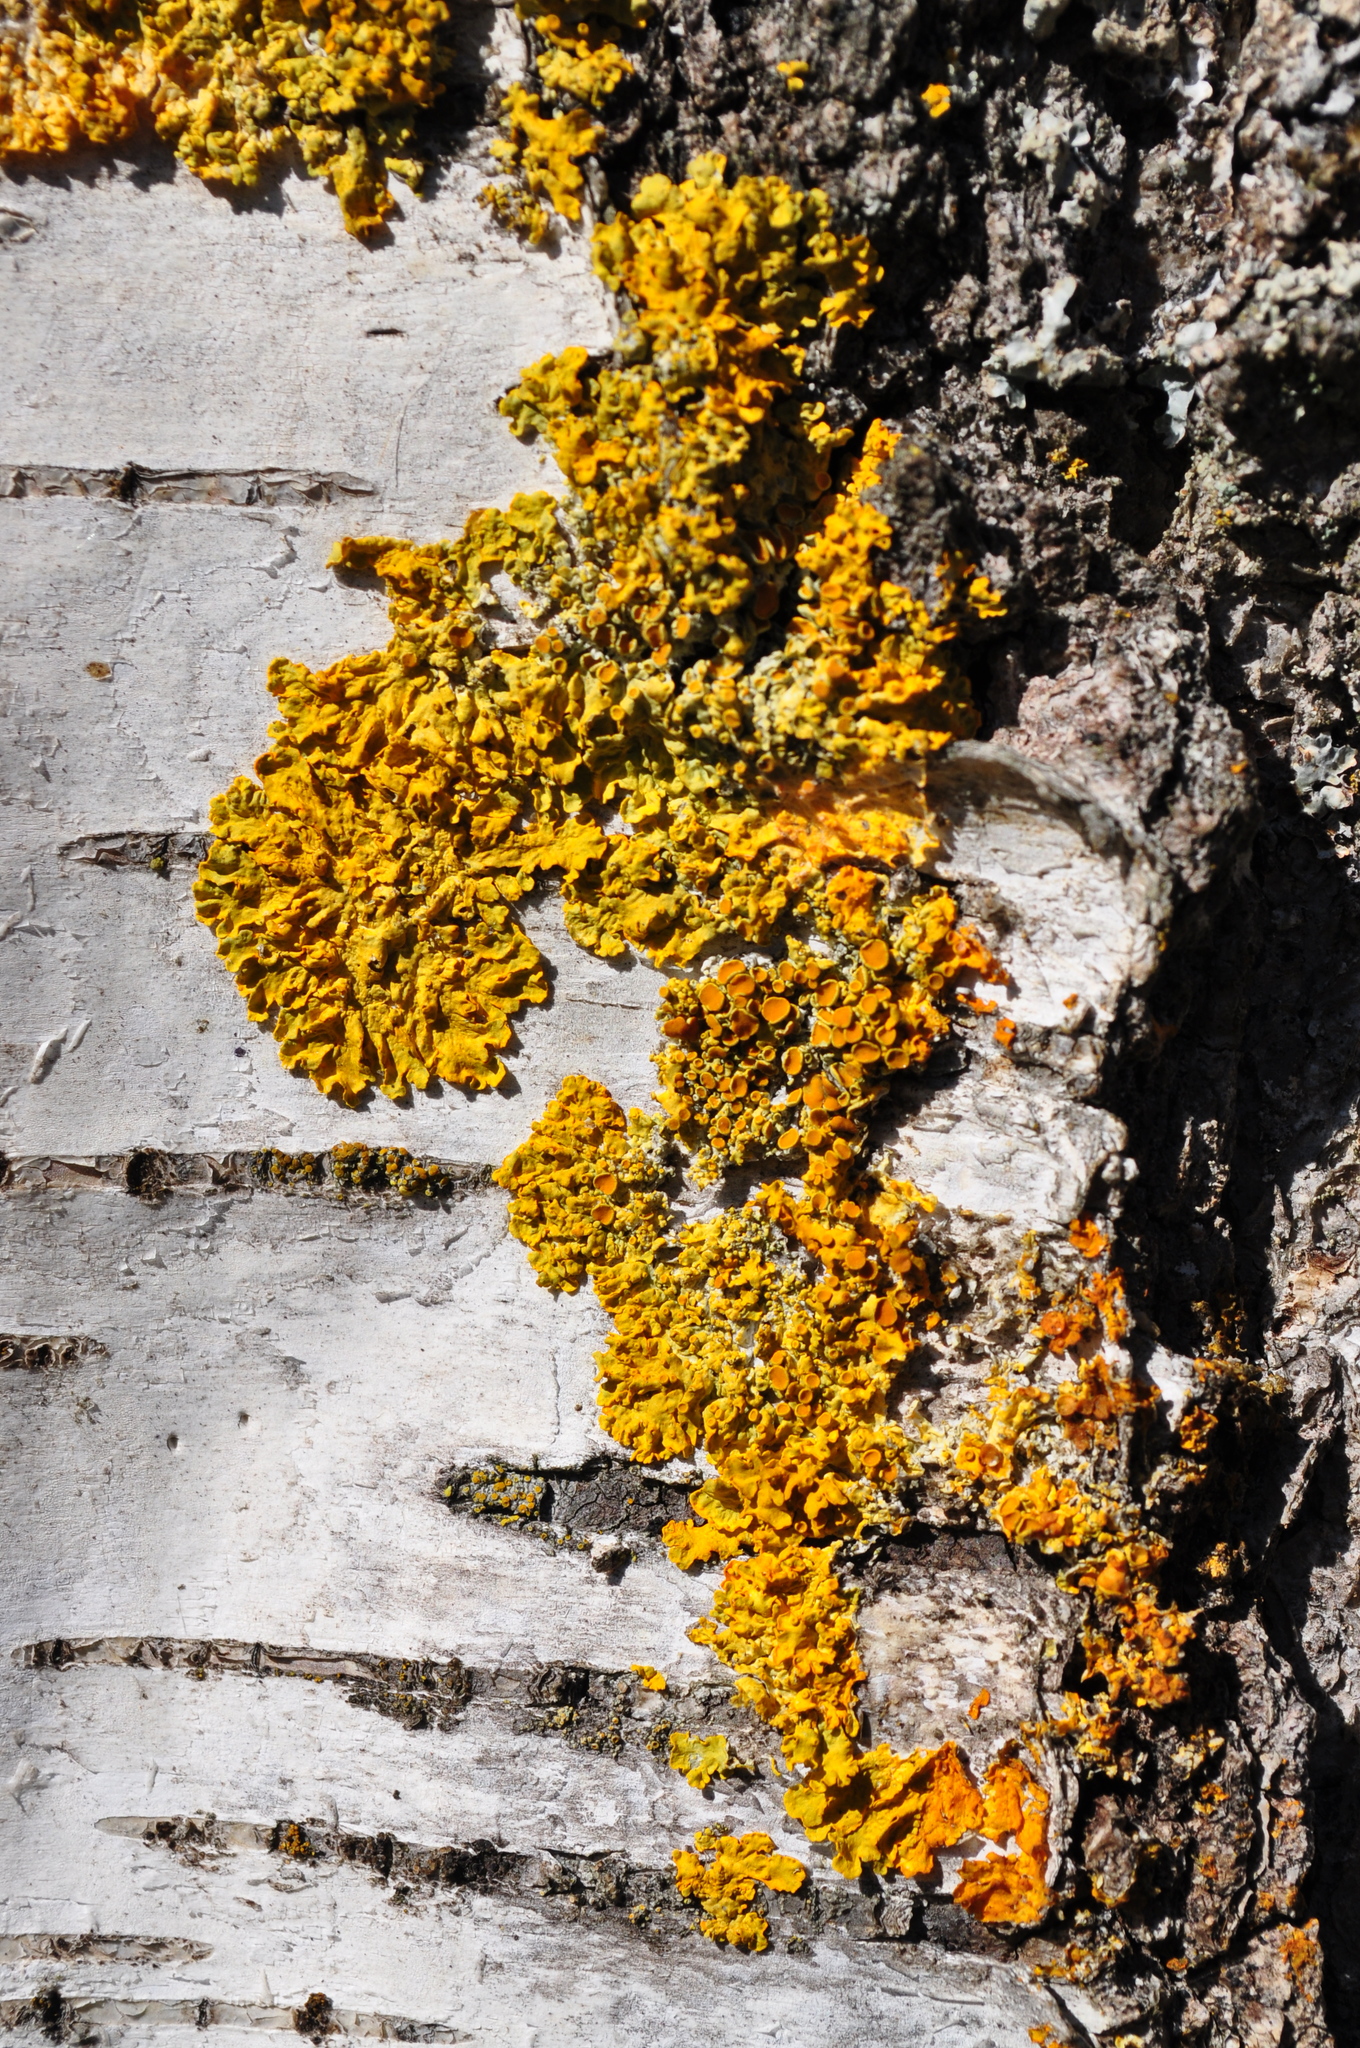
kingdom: Fungi
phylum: Ascomycota
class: Lecanoromycetes
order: Teloschistales
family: Teloschistaceae
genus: Xanthoria
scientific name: Xanthoria parietina
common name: Common orange lichen
